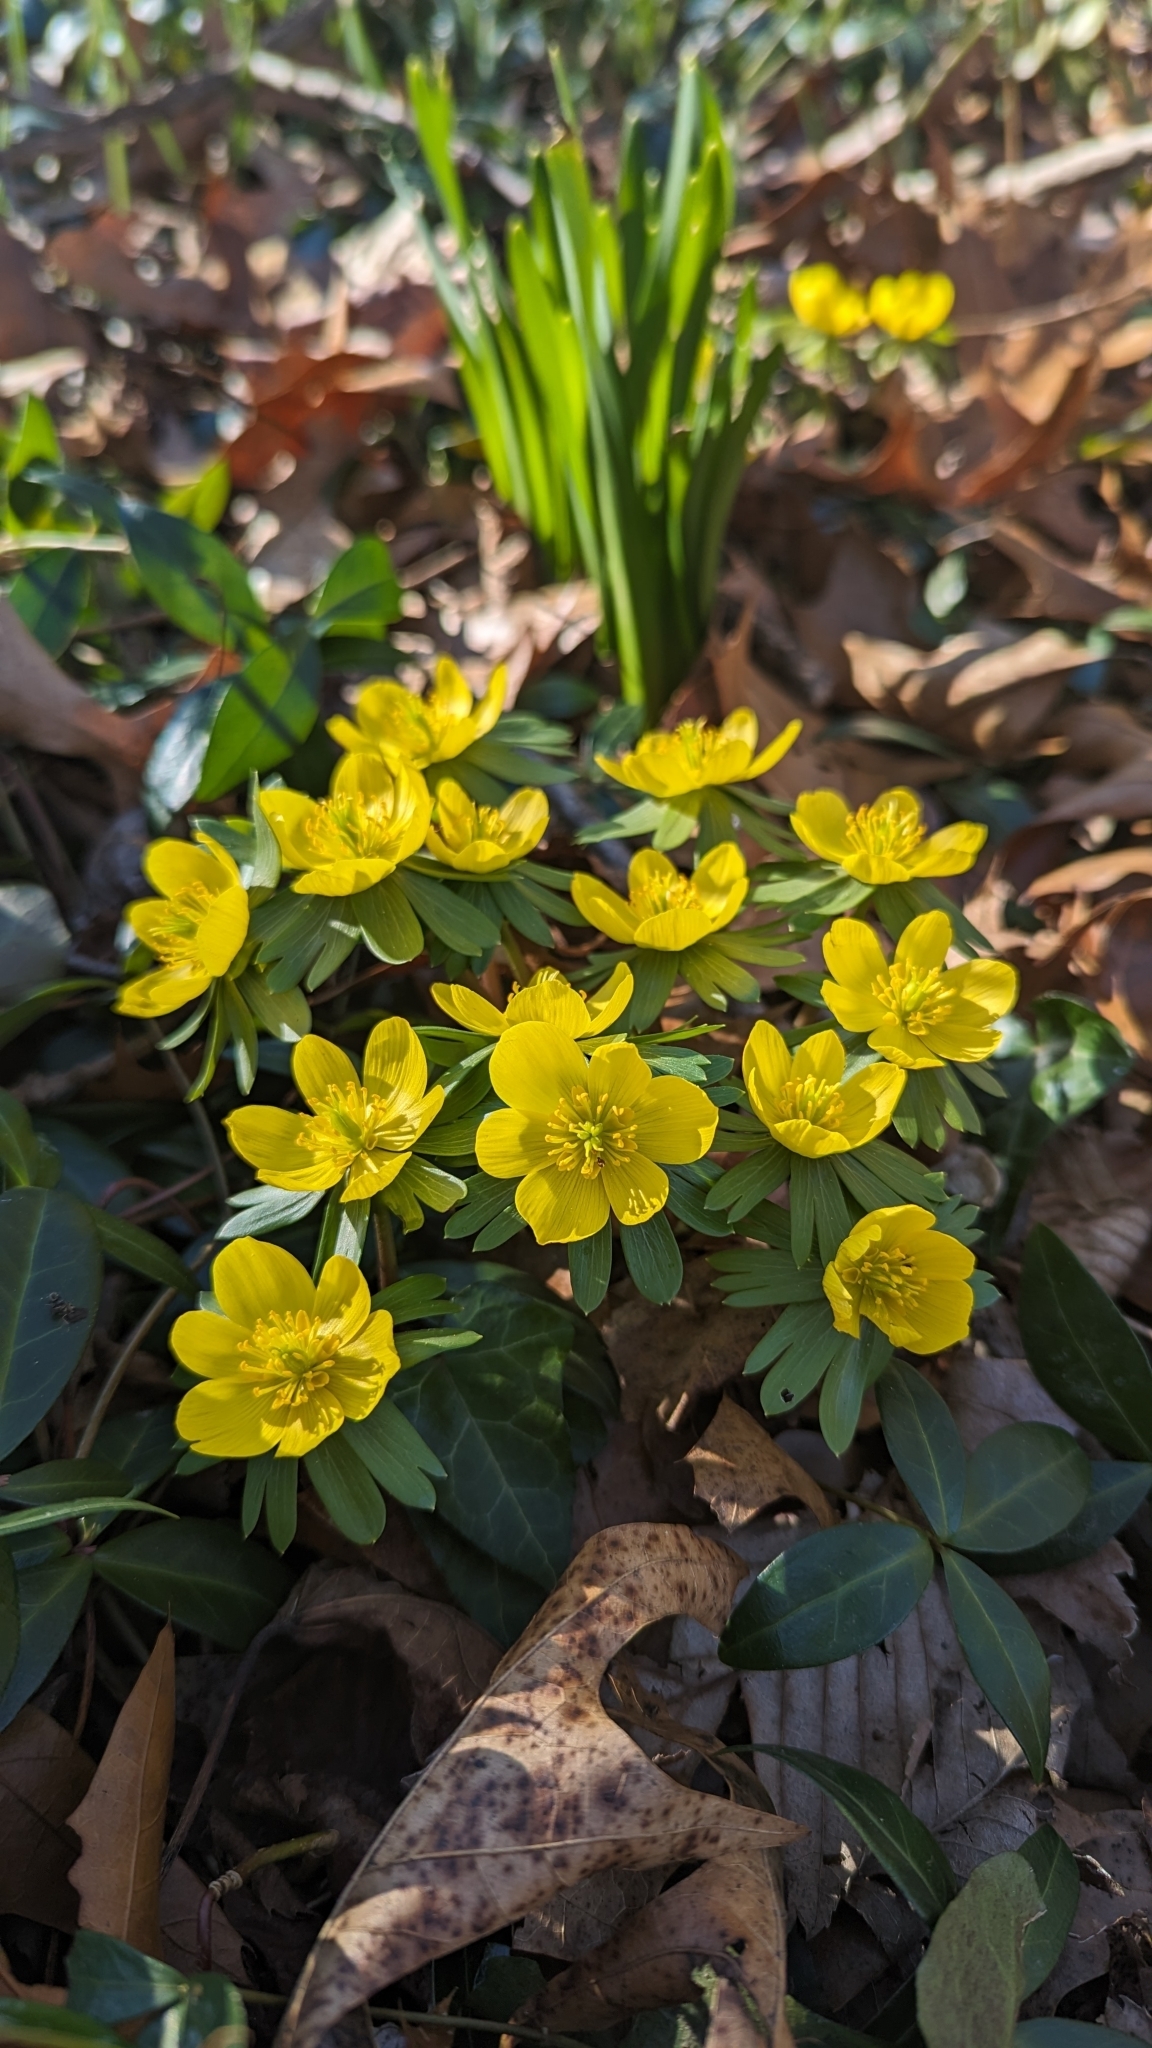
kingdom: Plantae
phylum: Tracheophyta
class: Magnoliopsida
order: Ranunculales
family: Ranunculaceae
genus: Eranthis
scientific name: Eranthis hyemalis
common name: Winter aconite
